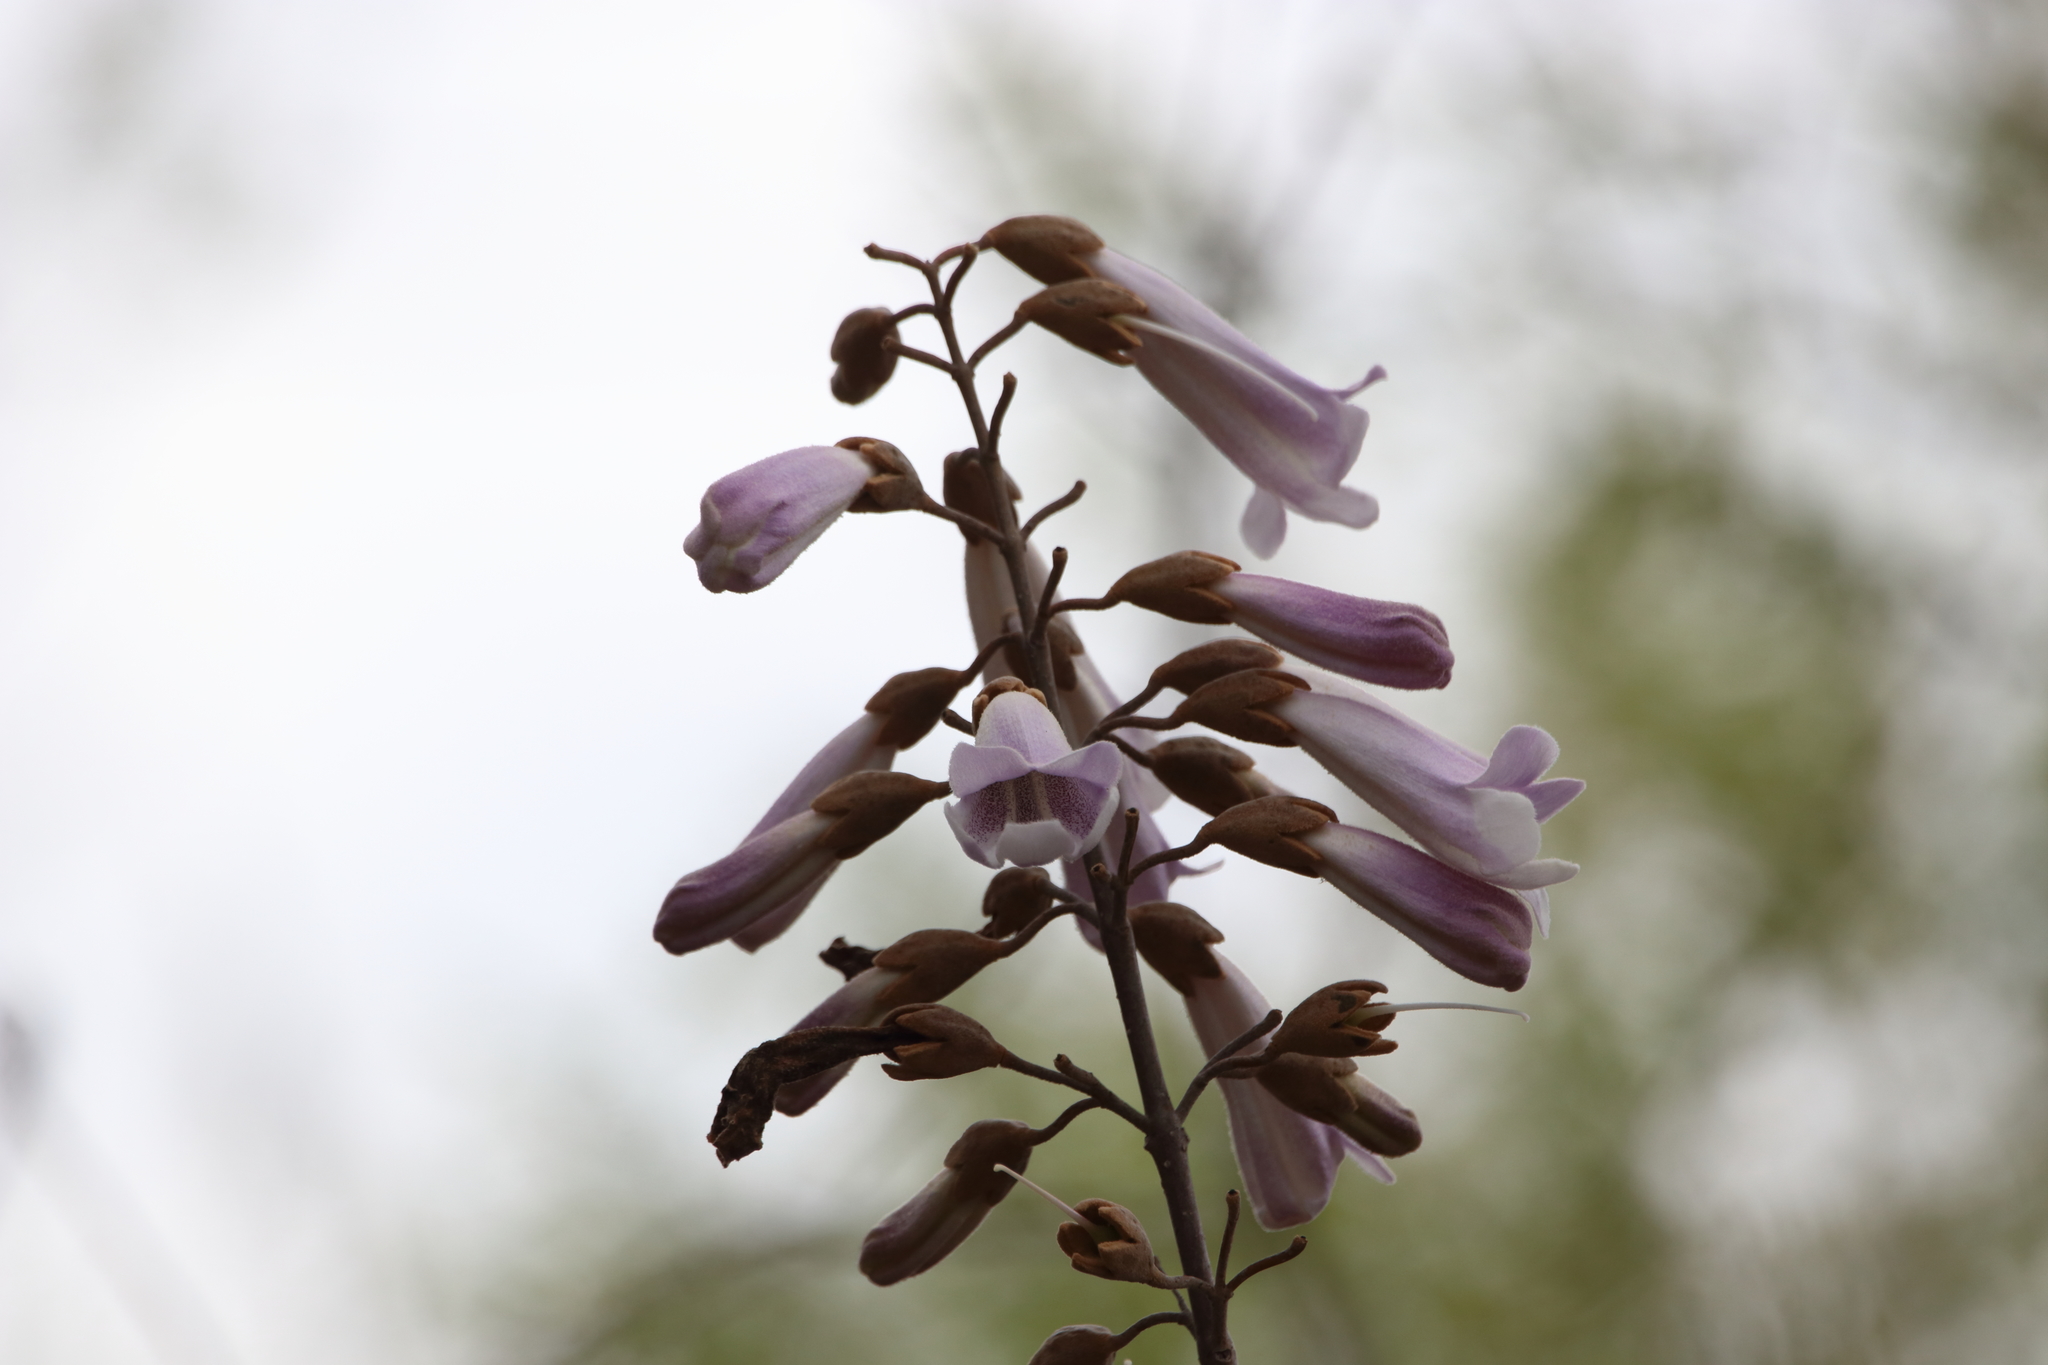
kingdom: Plantae
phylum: Tracheophyta
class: Magnoliopsida
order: Lamiales
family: Paulowniaceae
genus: Paulownia
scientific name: Paulownia tomentosa
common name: Foxglove-tree
